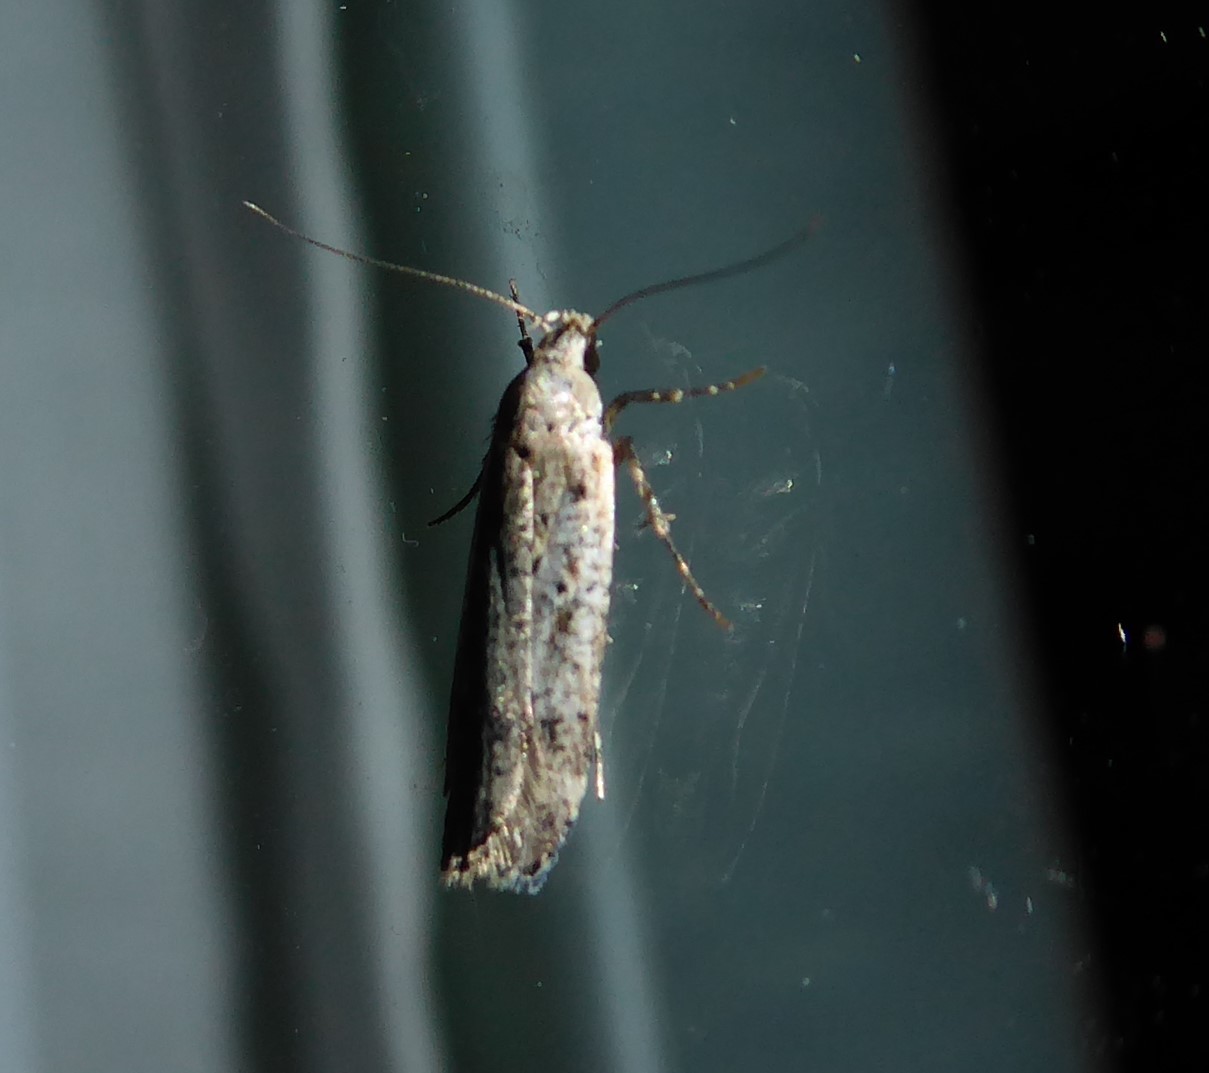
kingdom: Animalia
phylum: Arthropoda
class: Insecta
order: Lepidoptera
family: Gelechiidae
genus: Anisoplaca
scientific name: Anisoplaca achyrota
